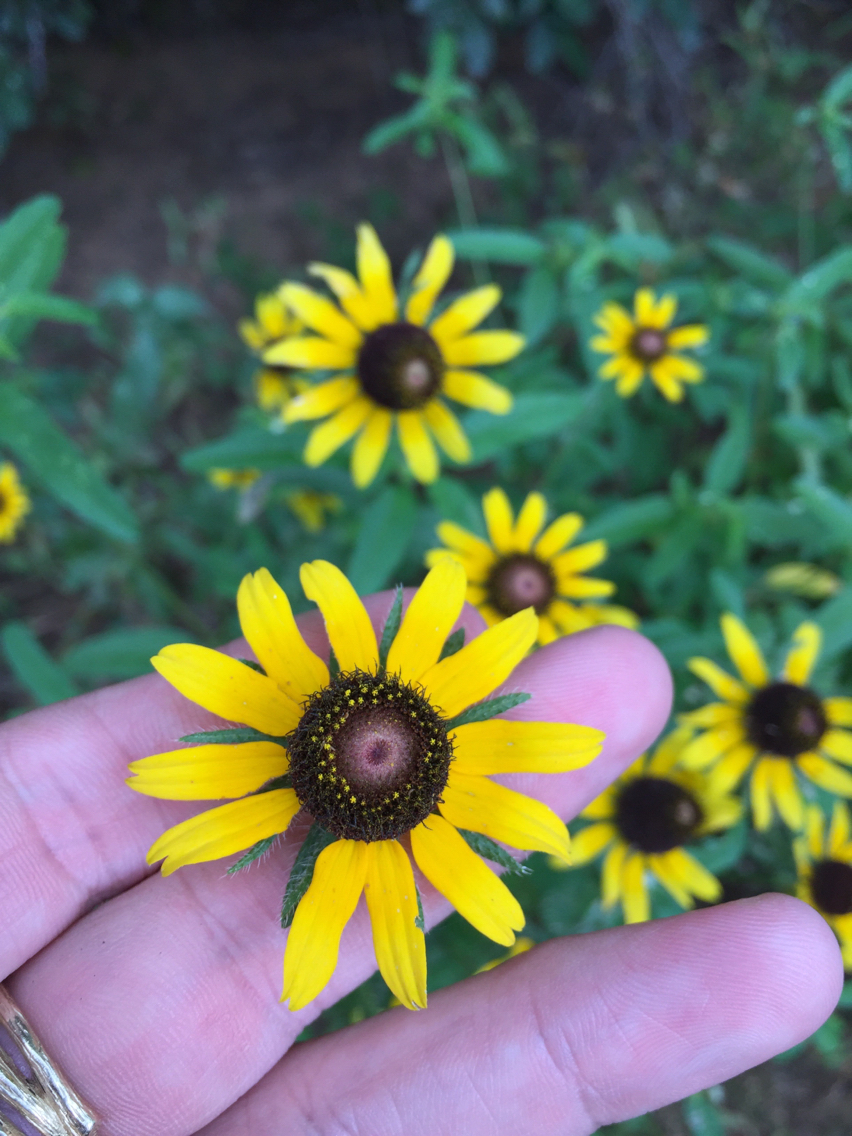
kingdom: Plantae
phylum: Tracheophyta
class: Magnoliopsida
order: Asterales
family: Asteraceae
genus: Rudbeckia
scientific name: Rudbeckia hirta
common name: Black-eyed-susan
